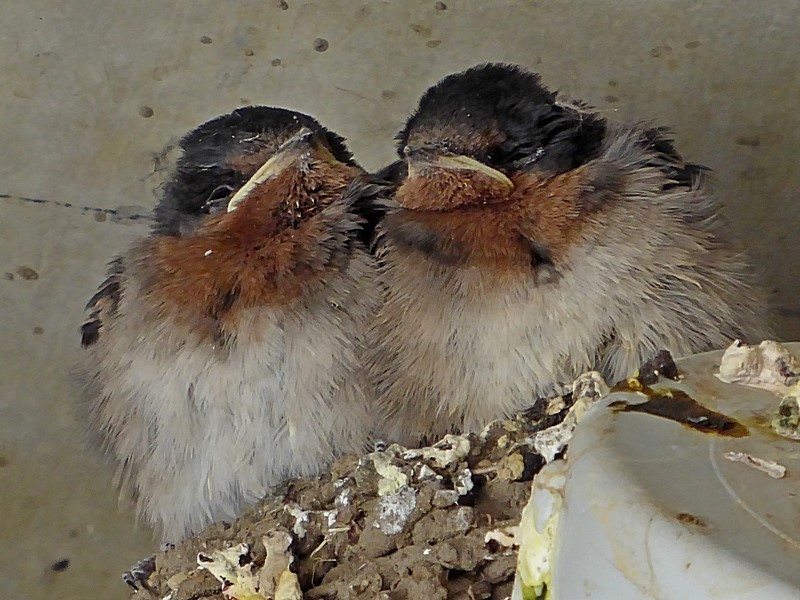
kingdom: Animalia
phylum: Chordata
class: Aves
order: Passeriformes
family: Hirundinidae
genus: Hirundo
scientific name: Hirundo neoxena
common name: Welcome swallow
